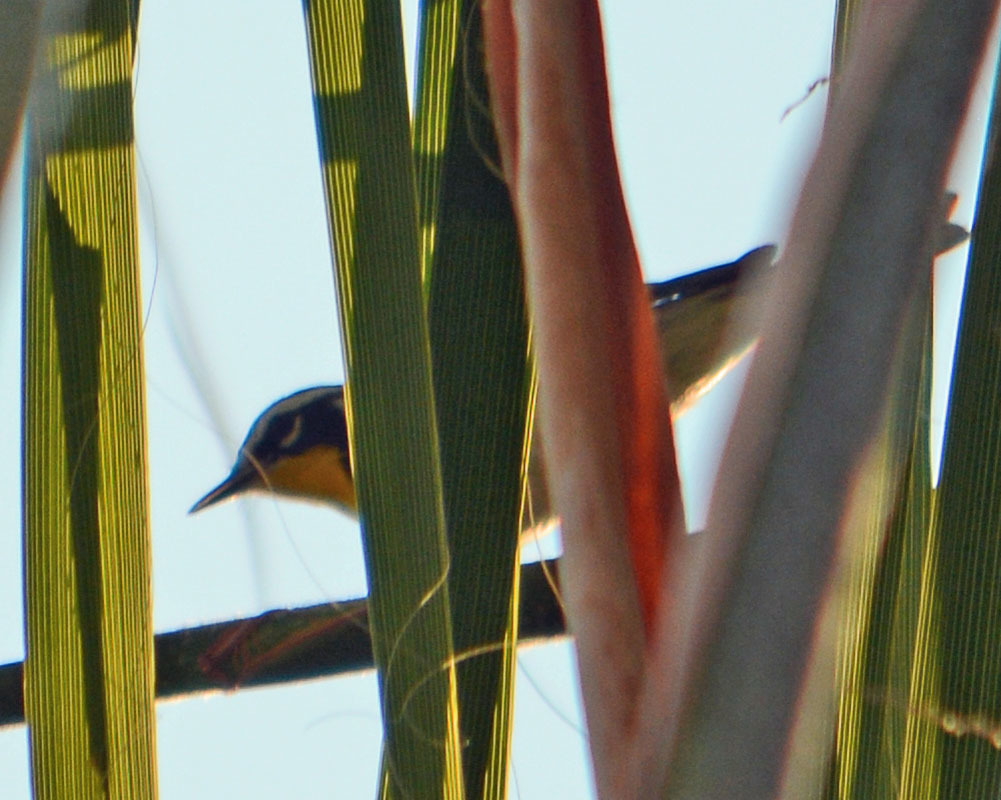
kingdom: Animalia
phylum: Chordata
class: Aves
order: Passeriformes
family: Parulidae
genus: Setophaga
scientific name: Setophaga dominica
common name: Yellow-throated warbler
